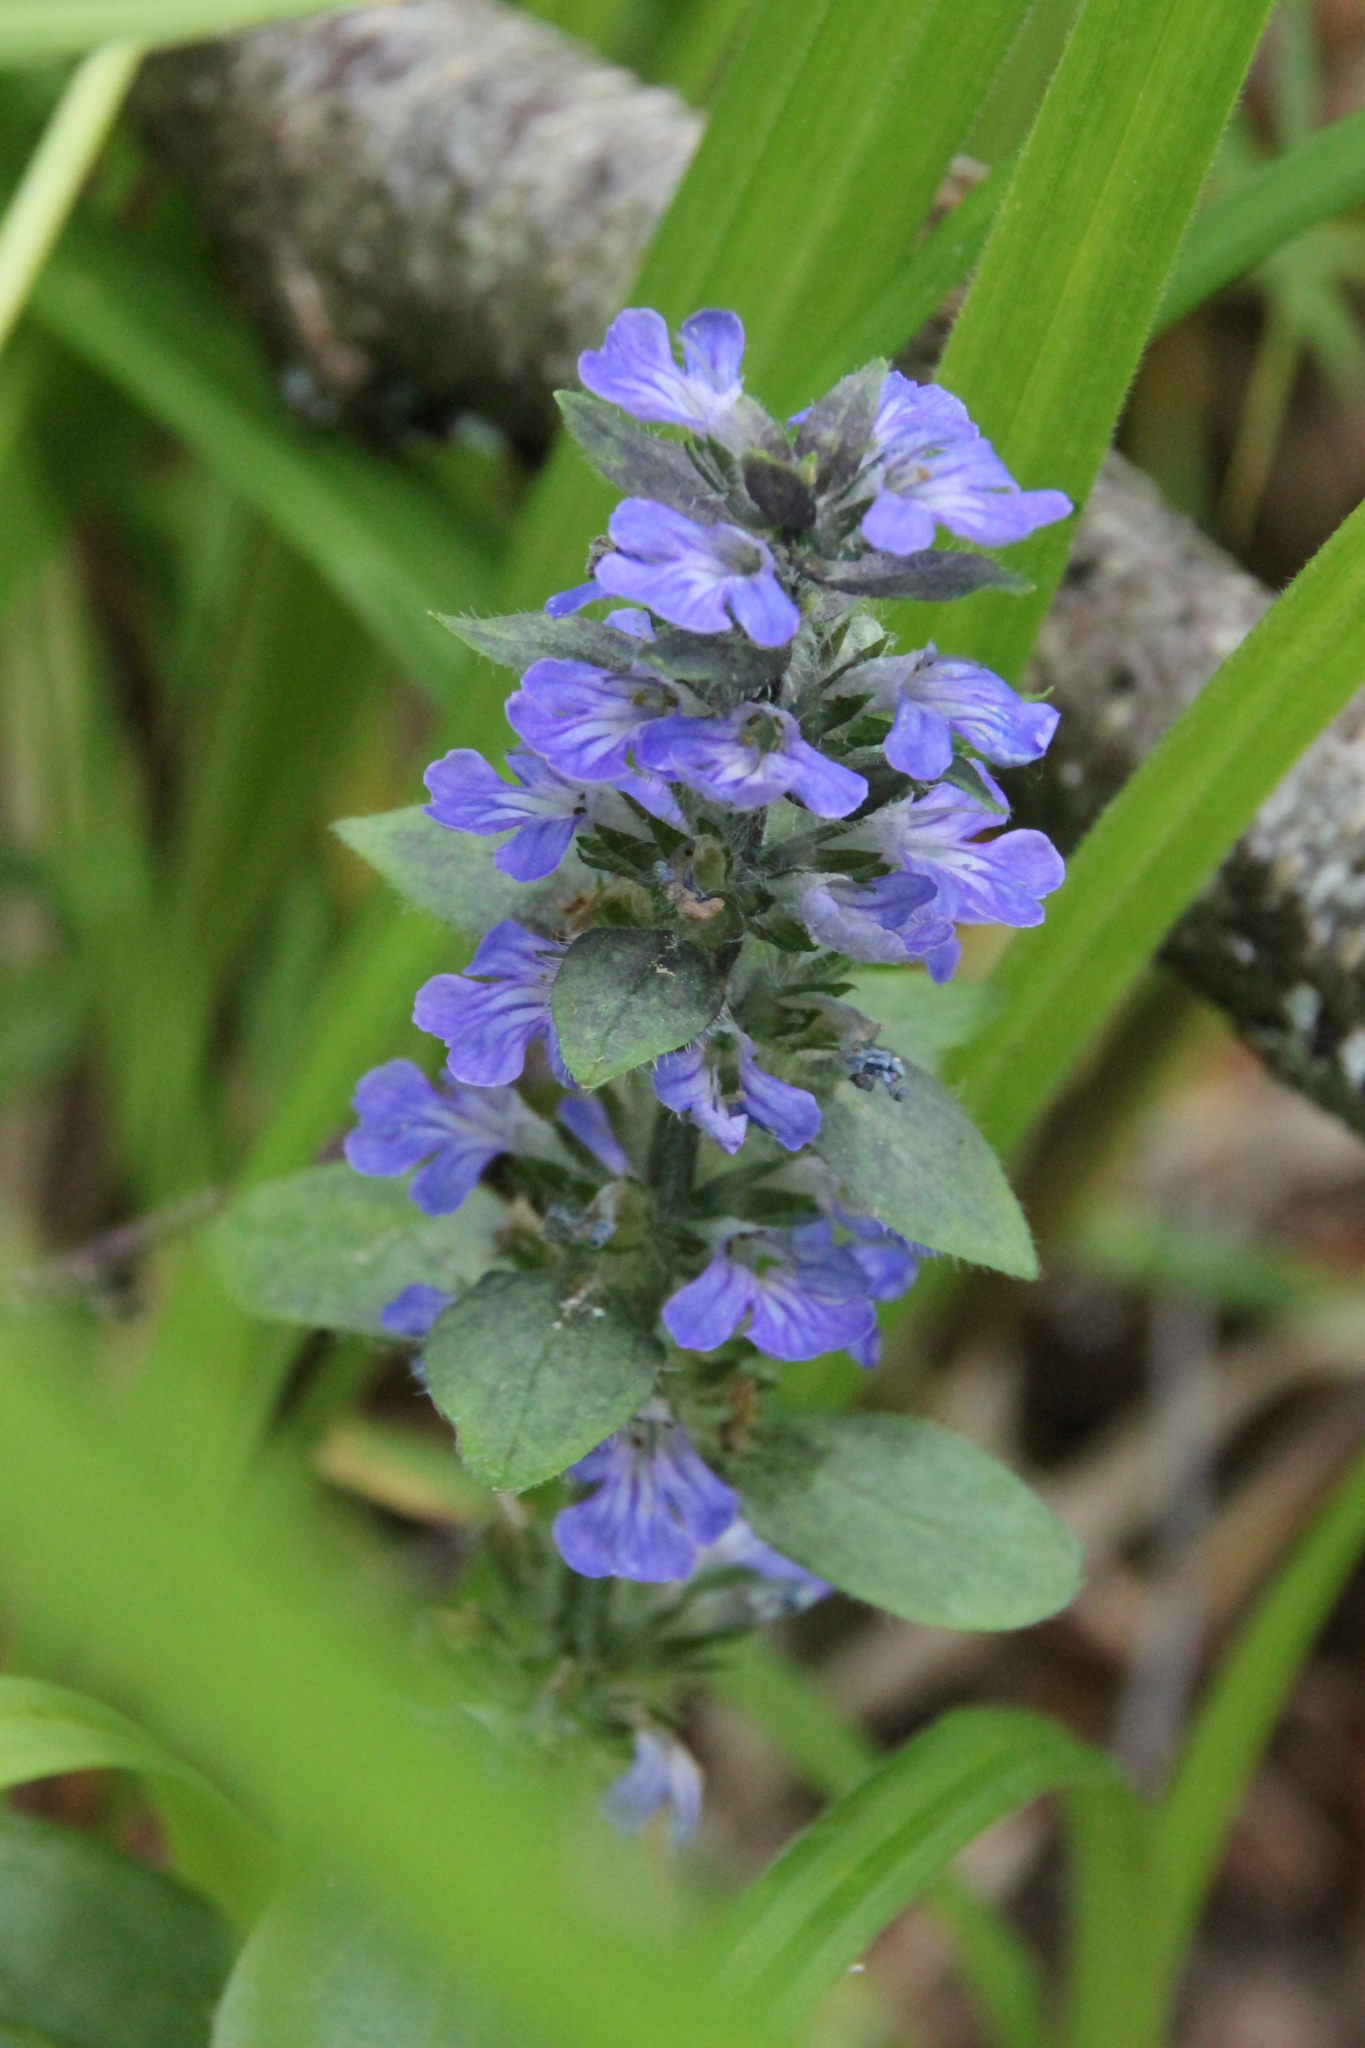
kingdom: Plantae
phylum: Tracheophyta
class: Magnoliopsida
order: Lamiales
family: Lamiaceae
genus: Ajuga
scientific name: Ajuga reptans
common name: Bugle
